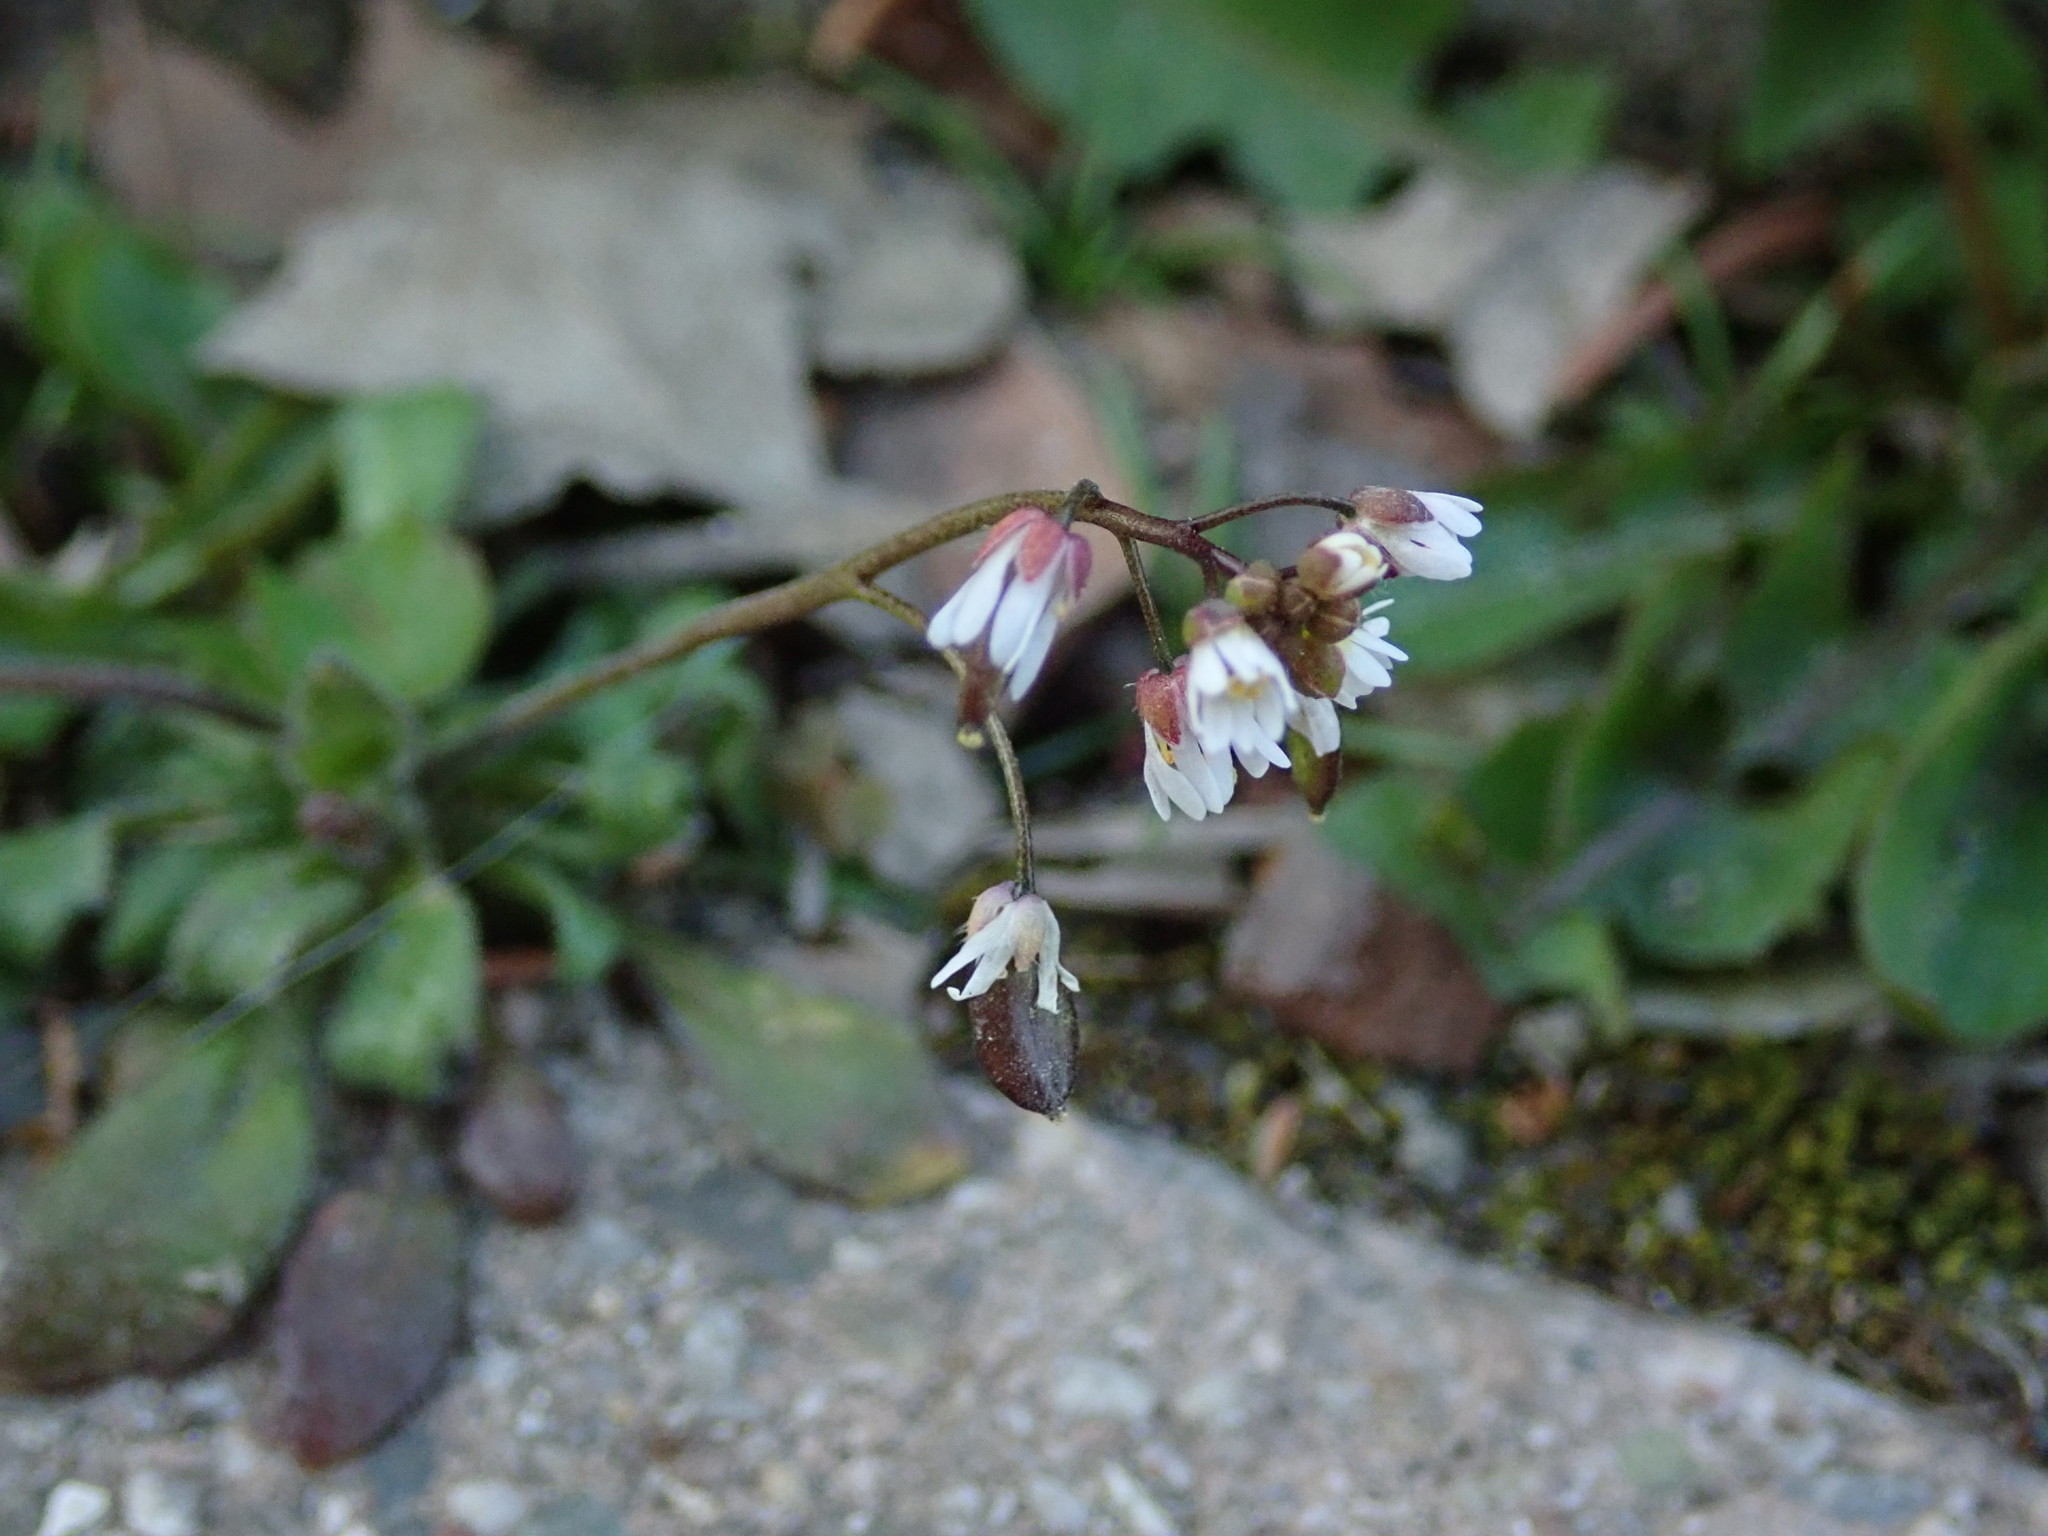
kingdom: Plantae
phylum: Tracheophyta
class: Magnoliopsida
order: Brassicales
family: Brassicaceae
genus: Draba
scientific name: Draba verna
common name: Spring draba
